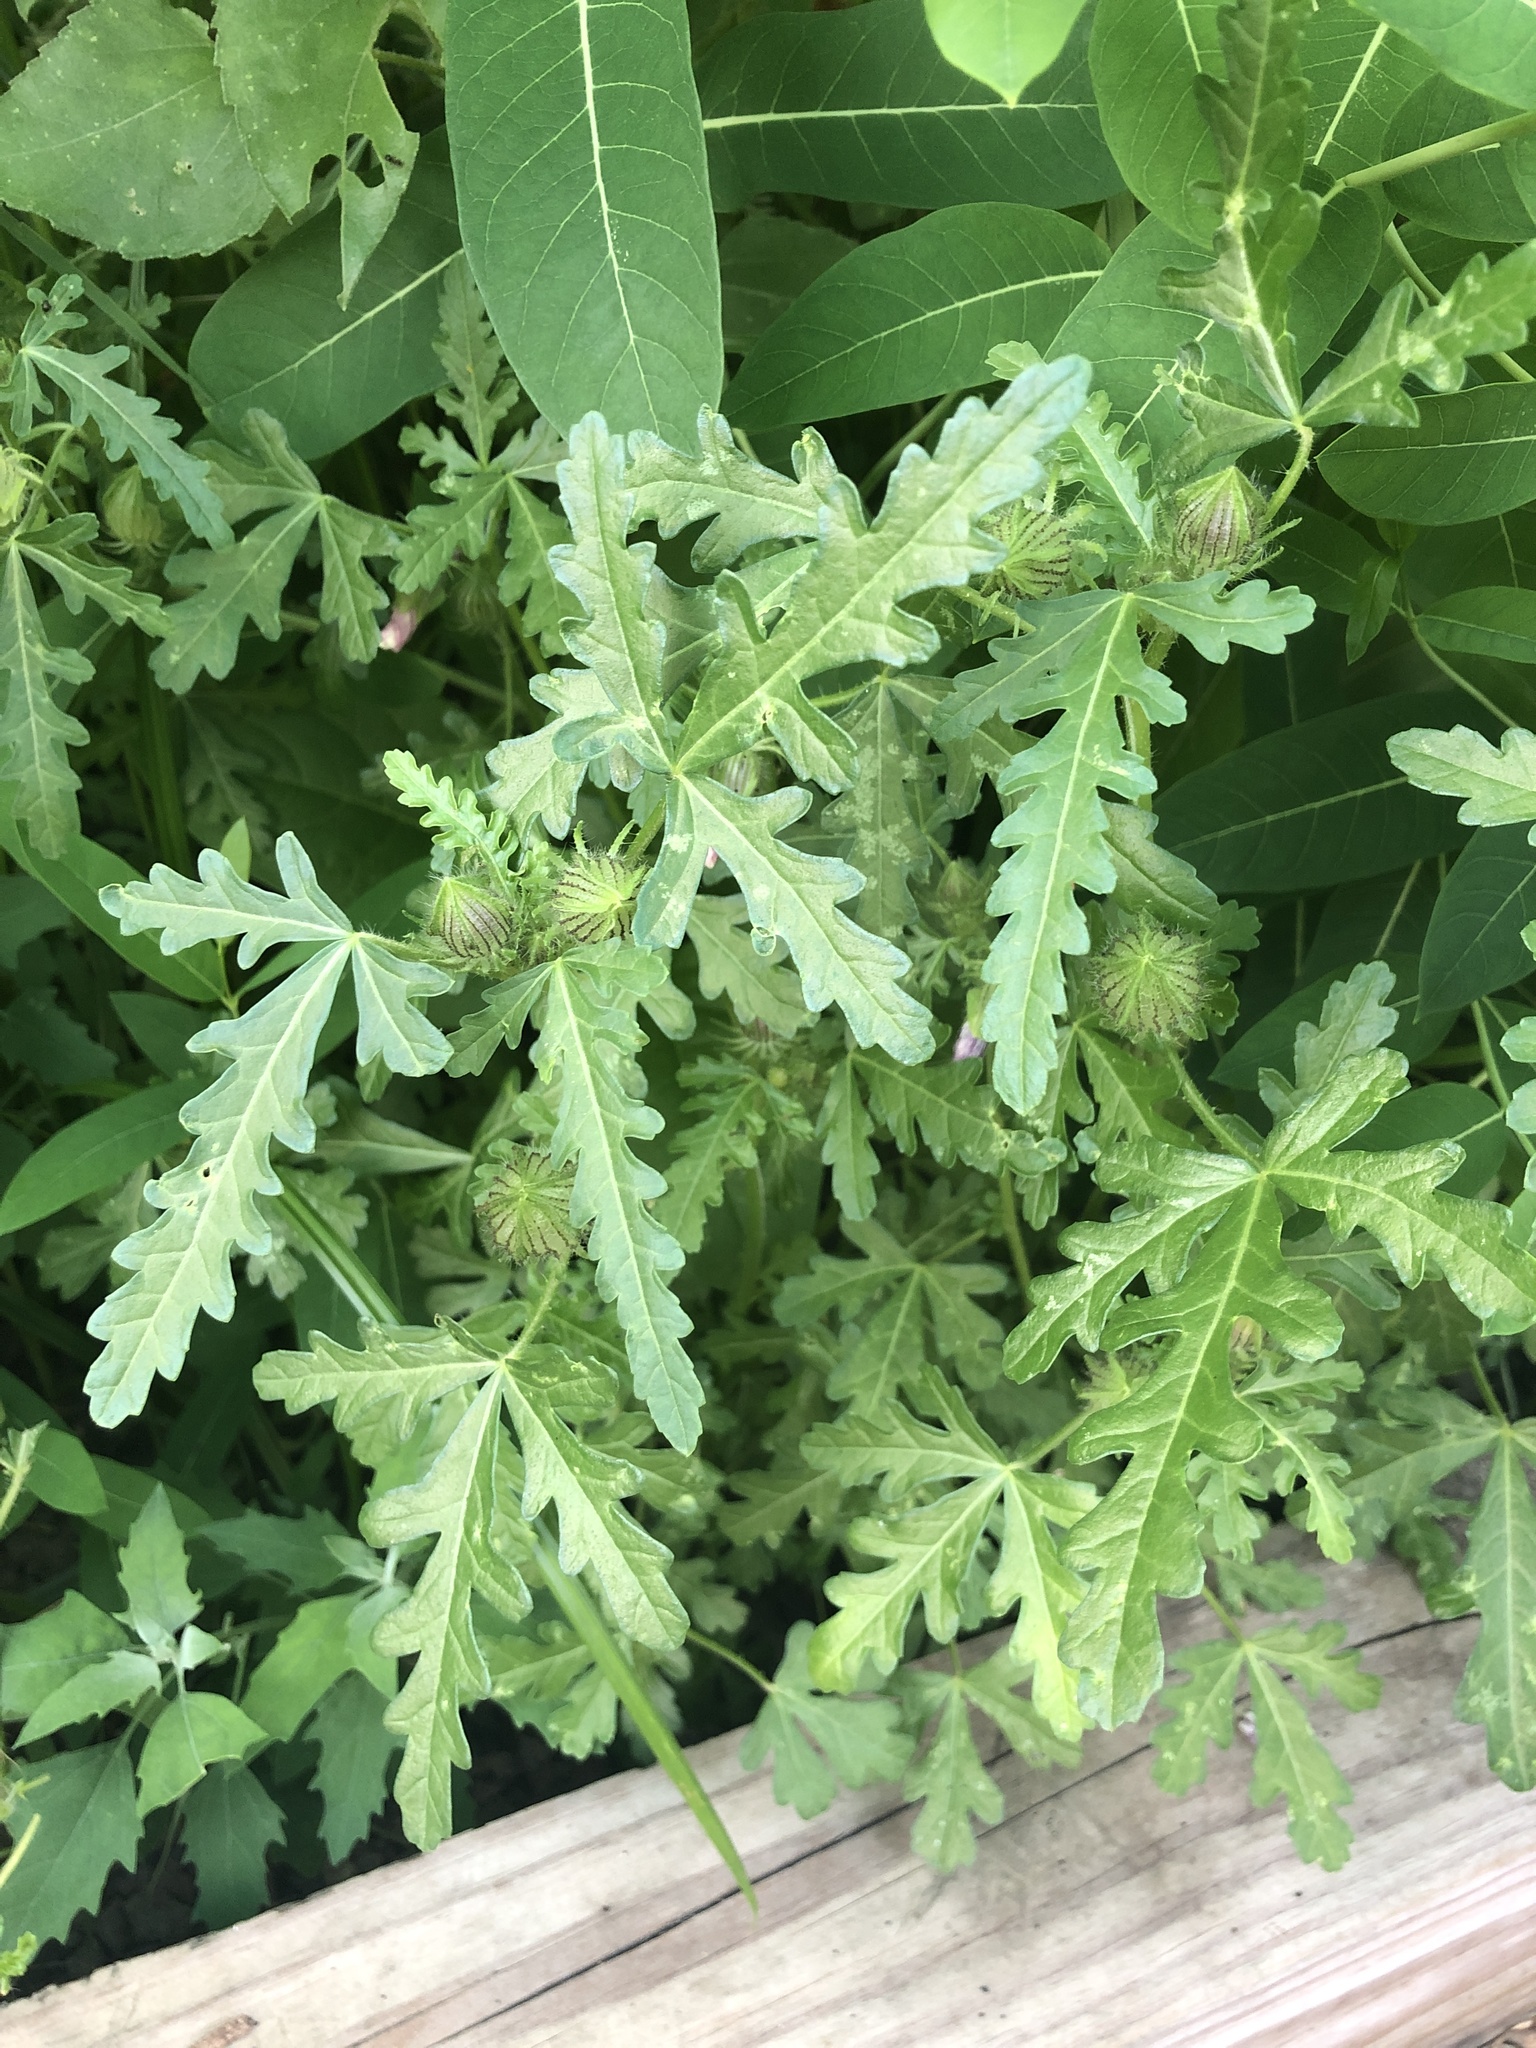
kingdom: Plantae
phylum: Tracheophyta
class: Magnoliopsida
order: Malvales
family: Malvaceae
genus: Hibiscus
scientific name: Hibiscus trionum
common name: Bladder ketmia
